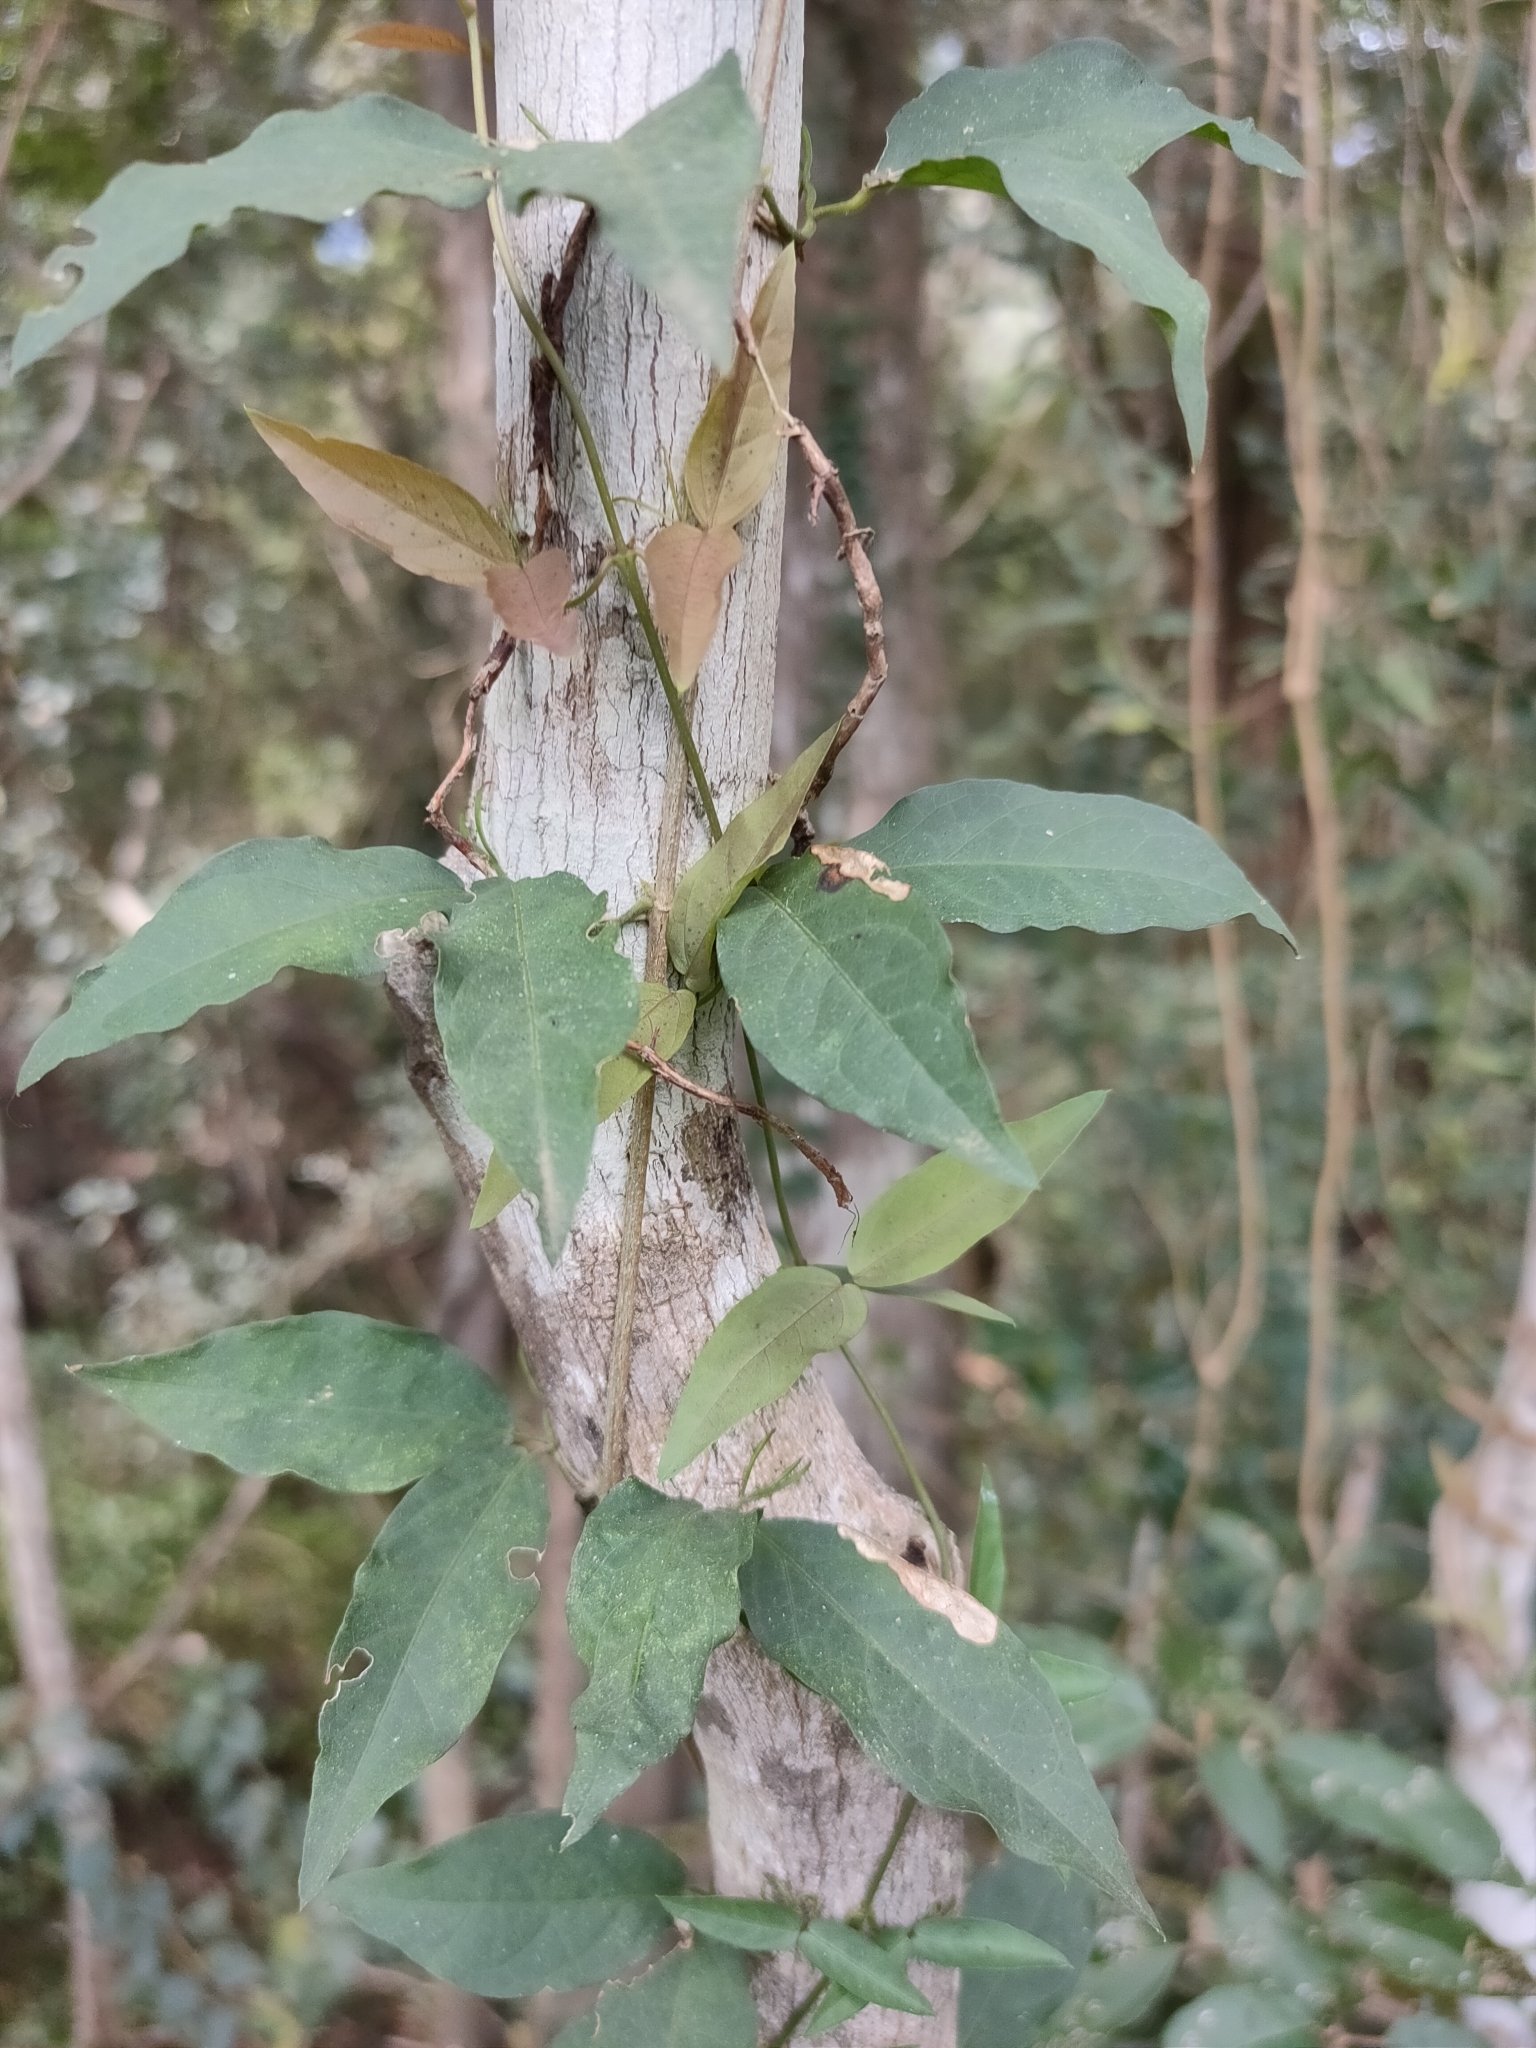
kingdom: Plantae
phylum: Tracheophyta
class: Magnoliopsida
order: Lamiales
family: Bignoniaceae
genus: Dolichandra
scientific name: Dolichandra unguis-cati
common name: Catclaw vine
